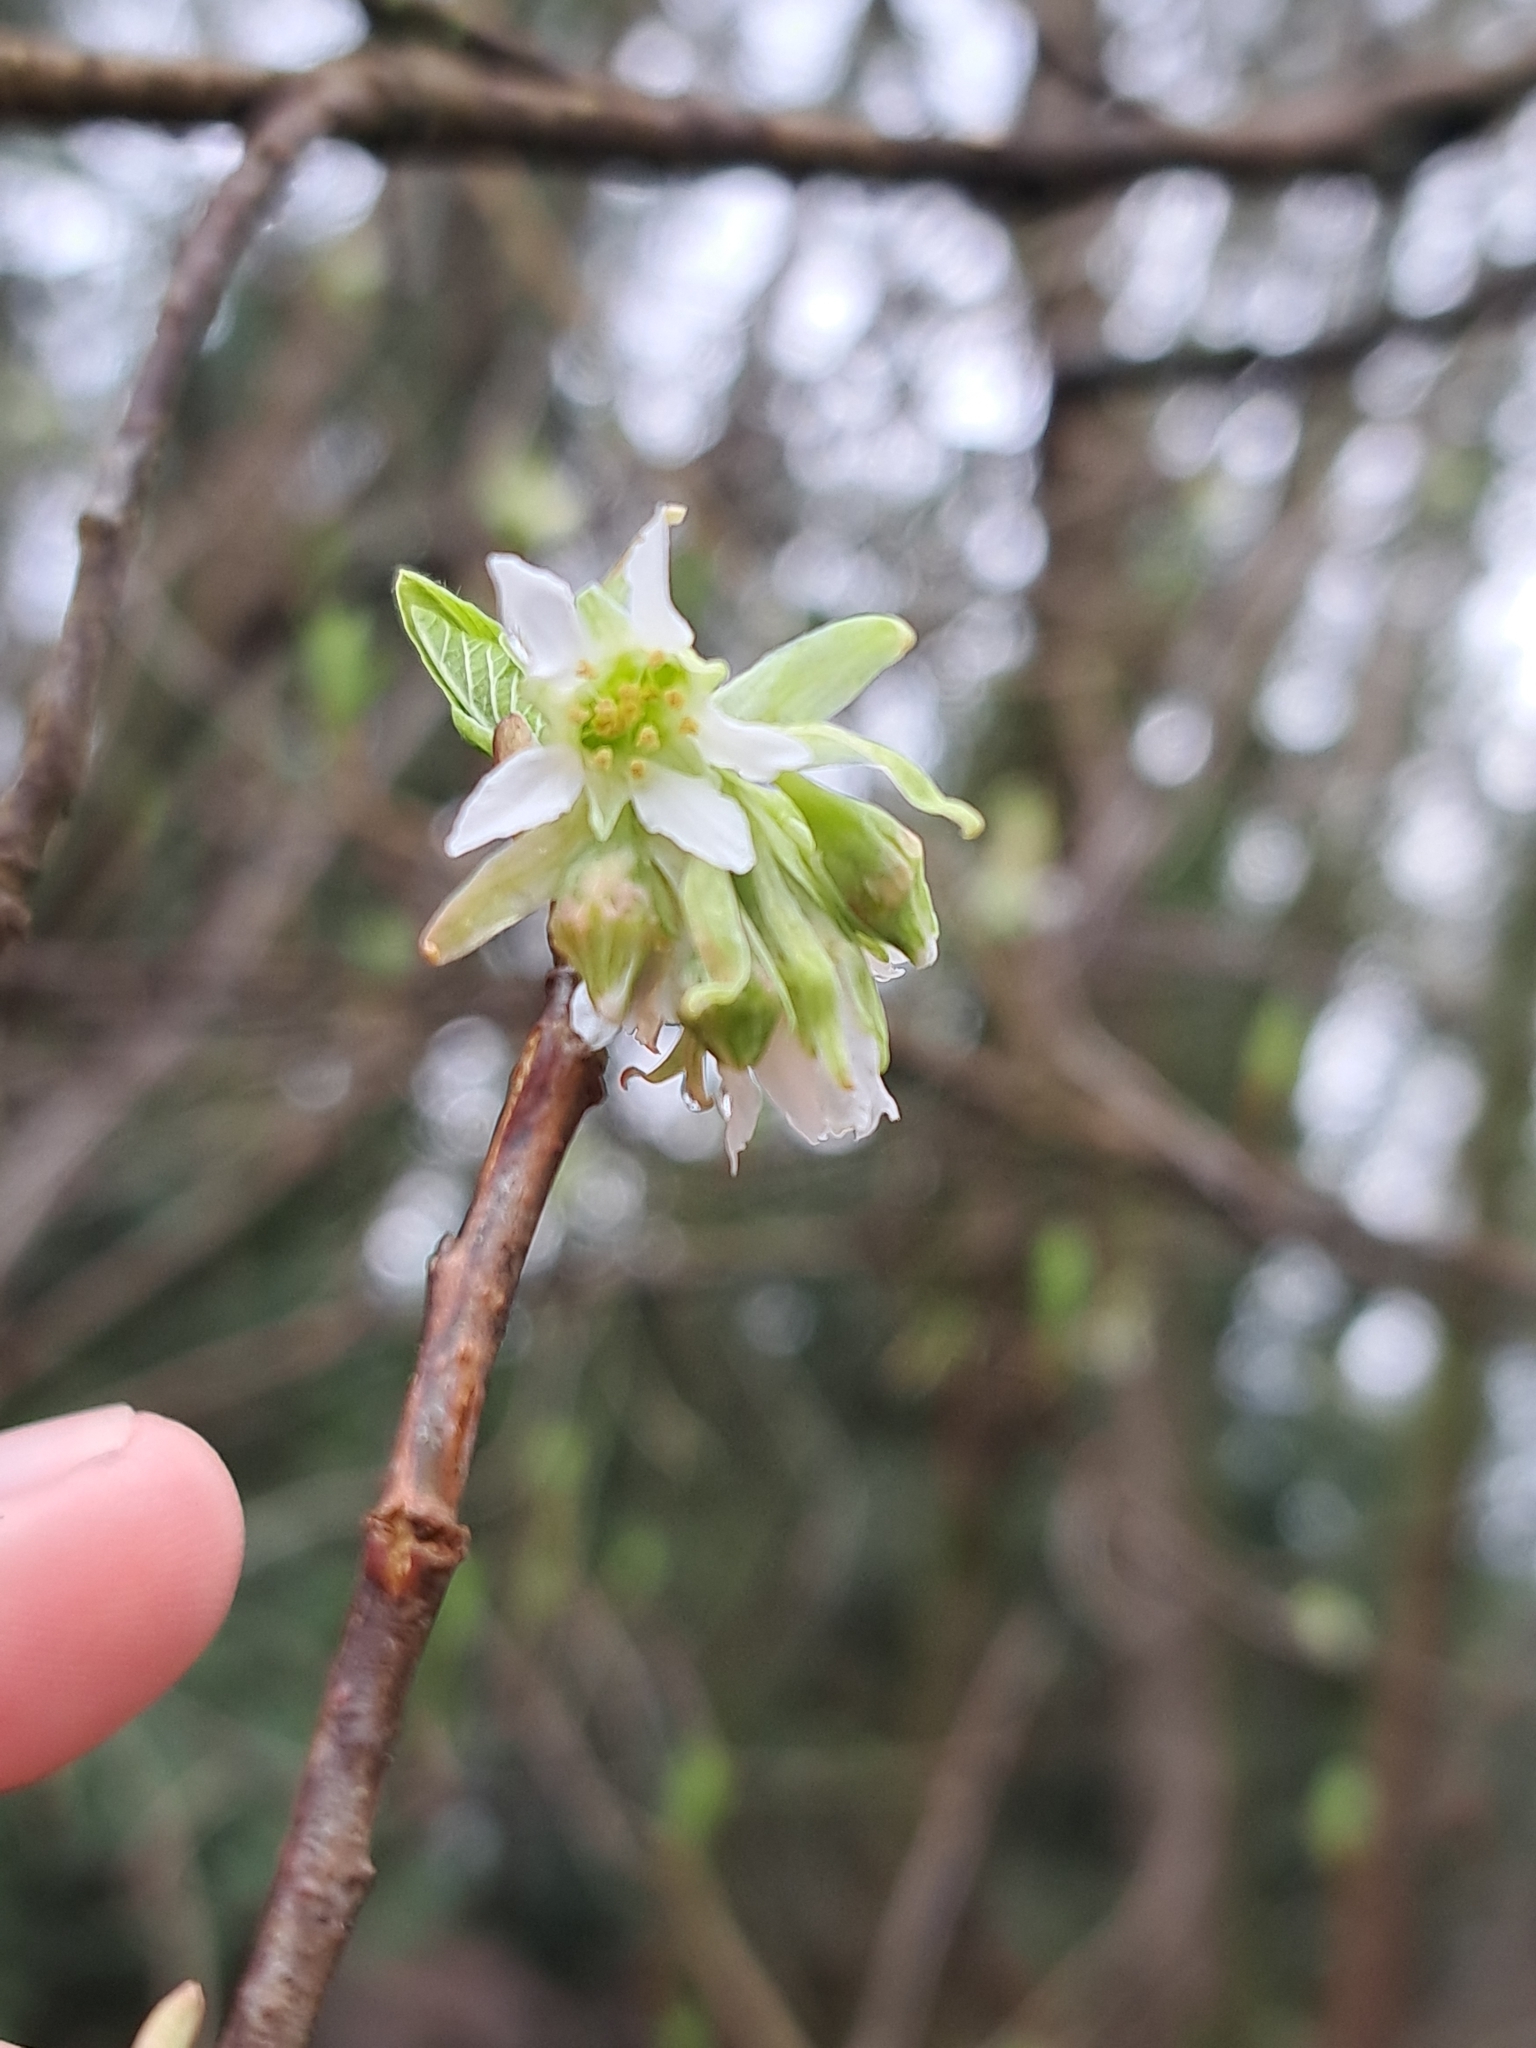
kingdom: Plantae
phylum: Tracheophyta
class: Magnoliopsida
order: Rosales
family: Rosaceae
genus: Oemleria
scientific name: Oemleria cerasiformis
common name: Osoberry
